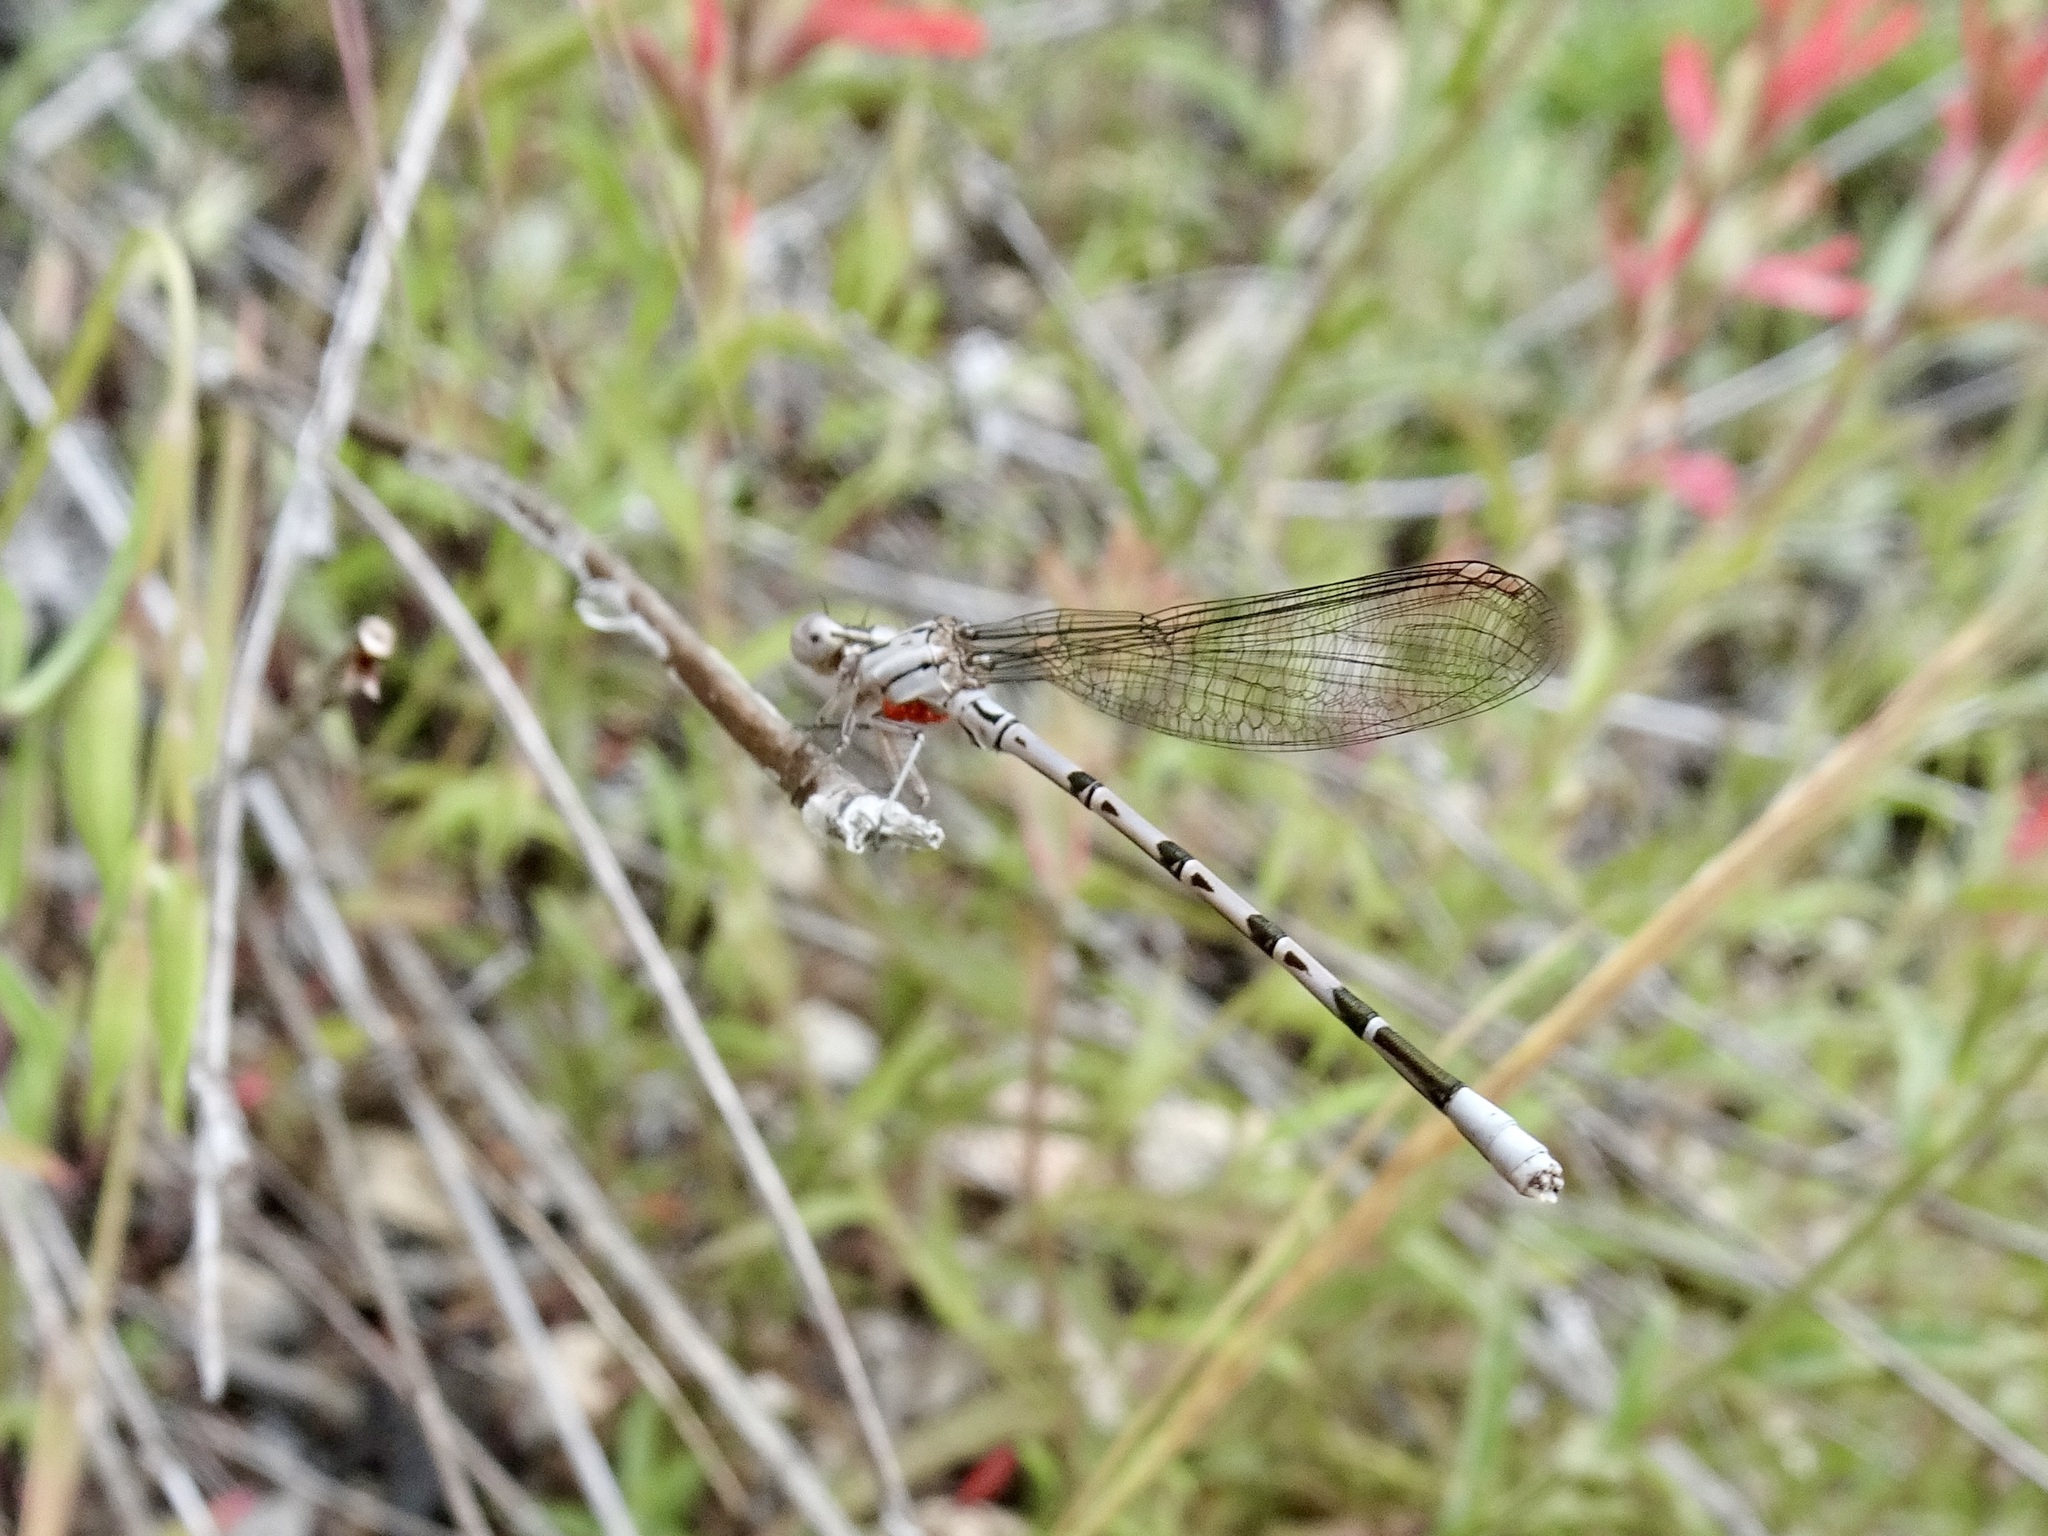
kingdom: Animalia
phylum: Arthropoda
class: Insecta
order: Odonata
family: Coenagrionidae
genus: Argia
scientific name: Argia vivida
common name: Vivid dancer
